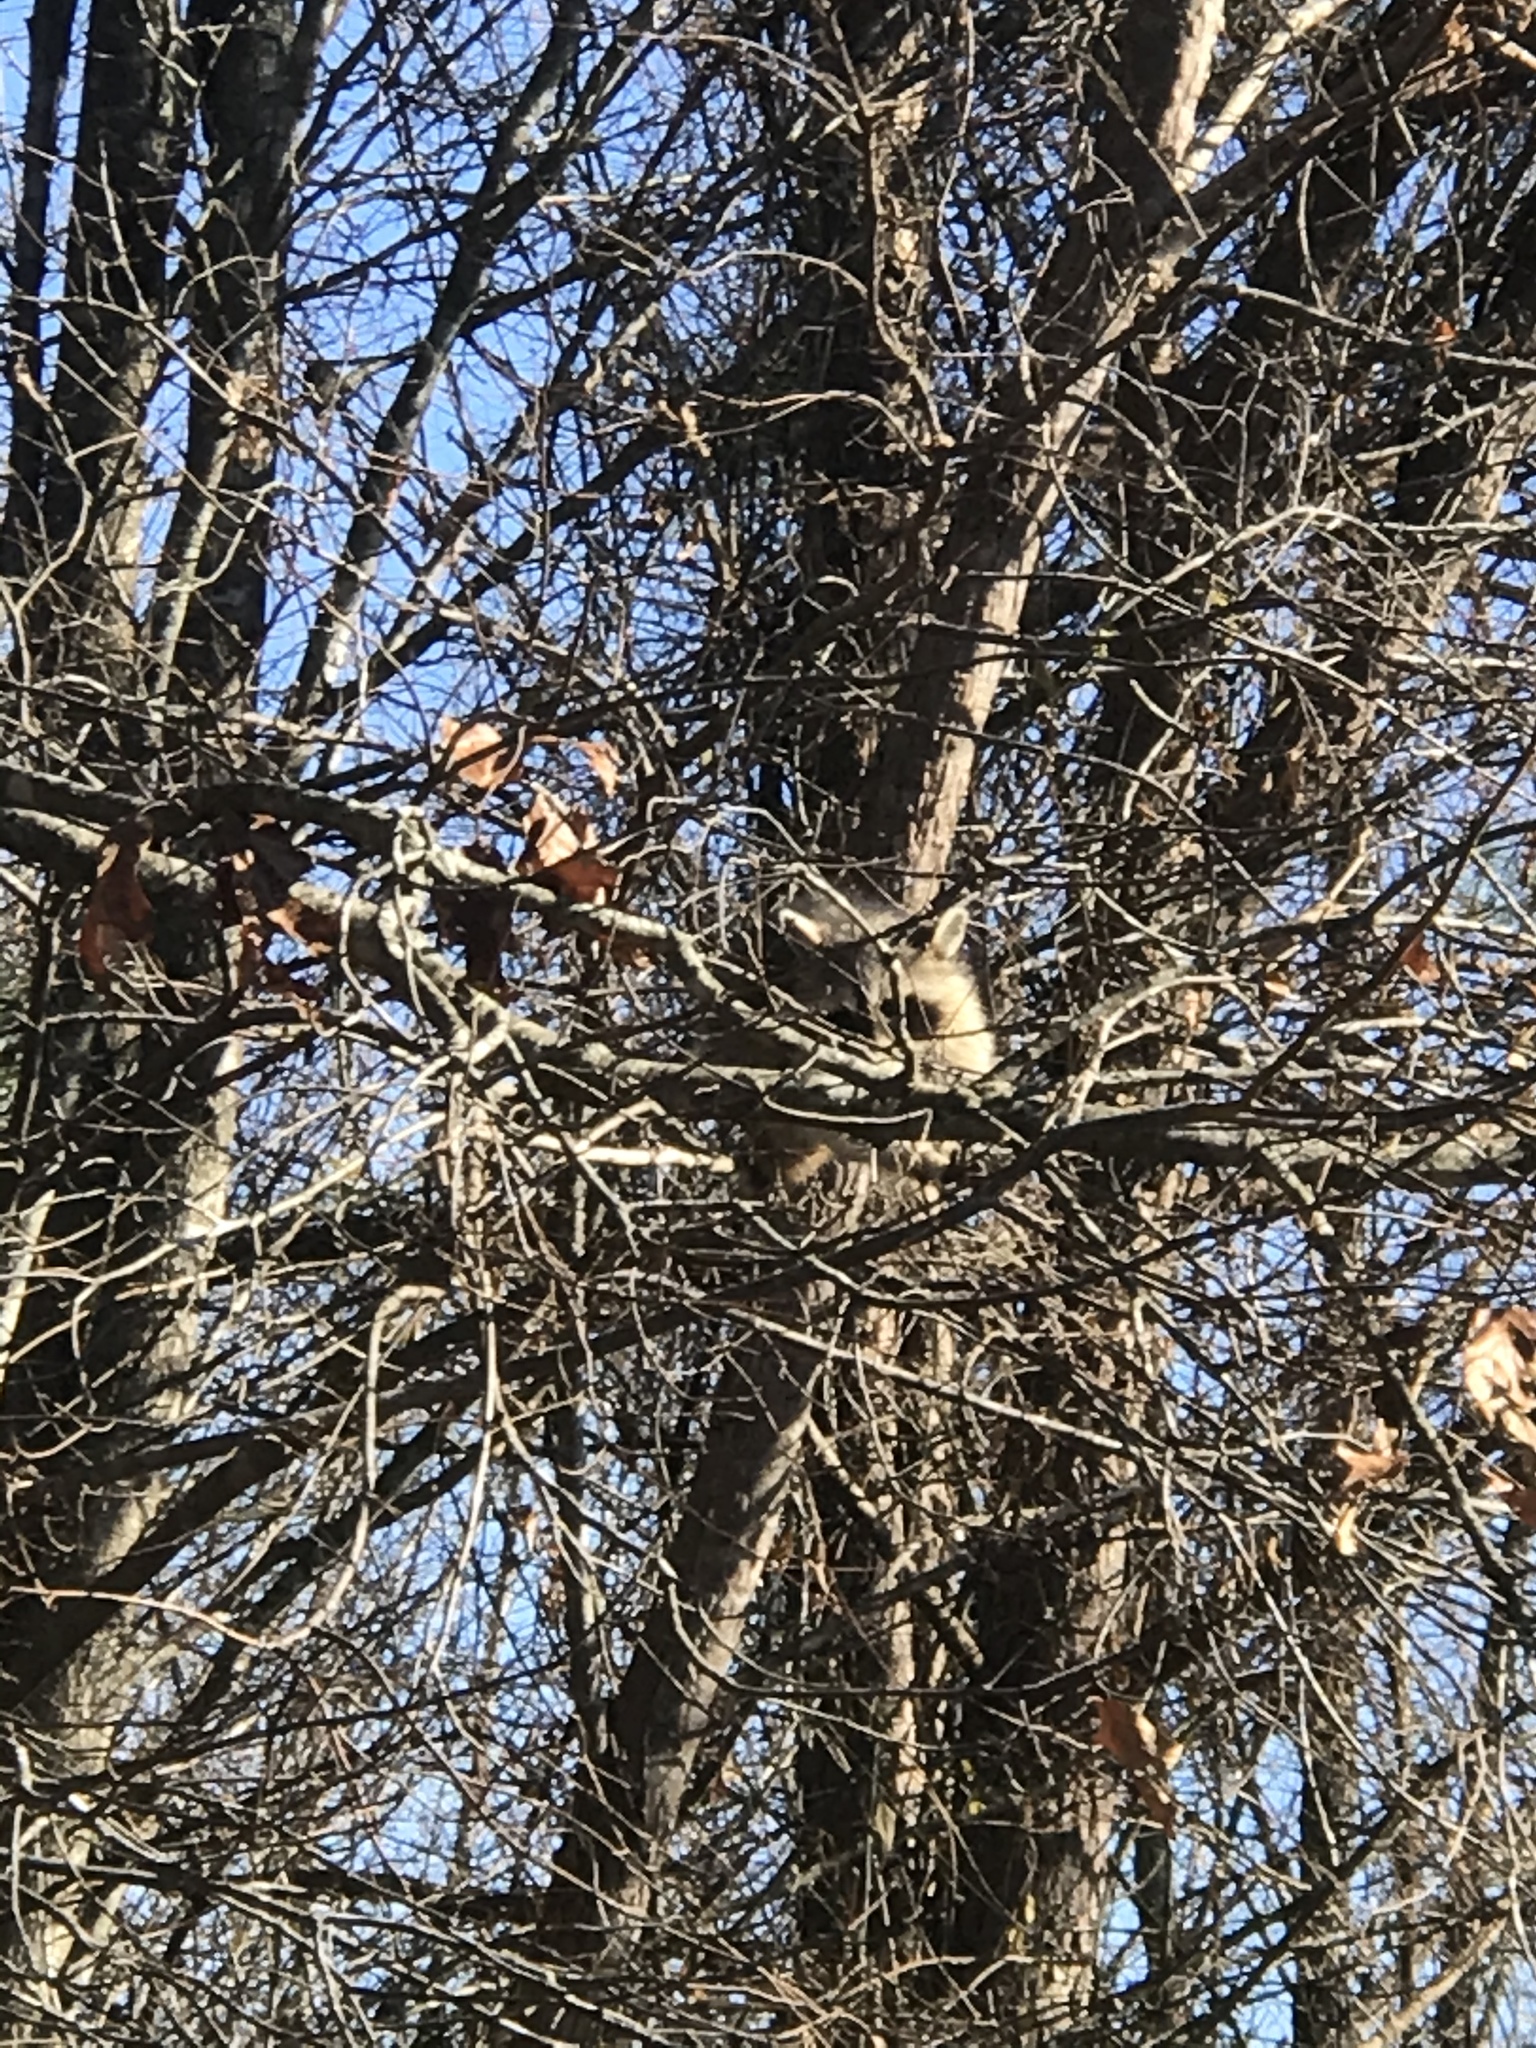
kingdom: Animalia
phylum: Chordata
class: Mammalia
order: Carnivora
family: Procyonidae
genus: Procyon
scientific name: Procyon lotor
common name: Raccoon
